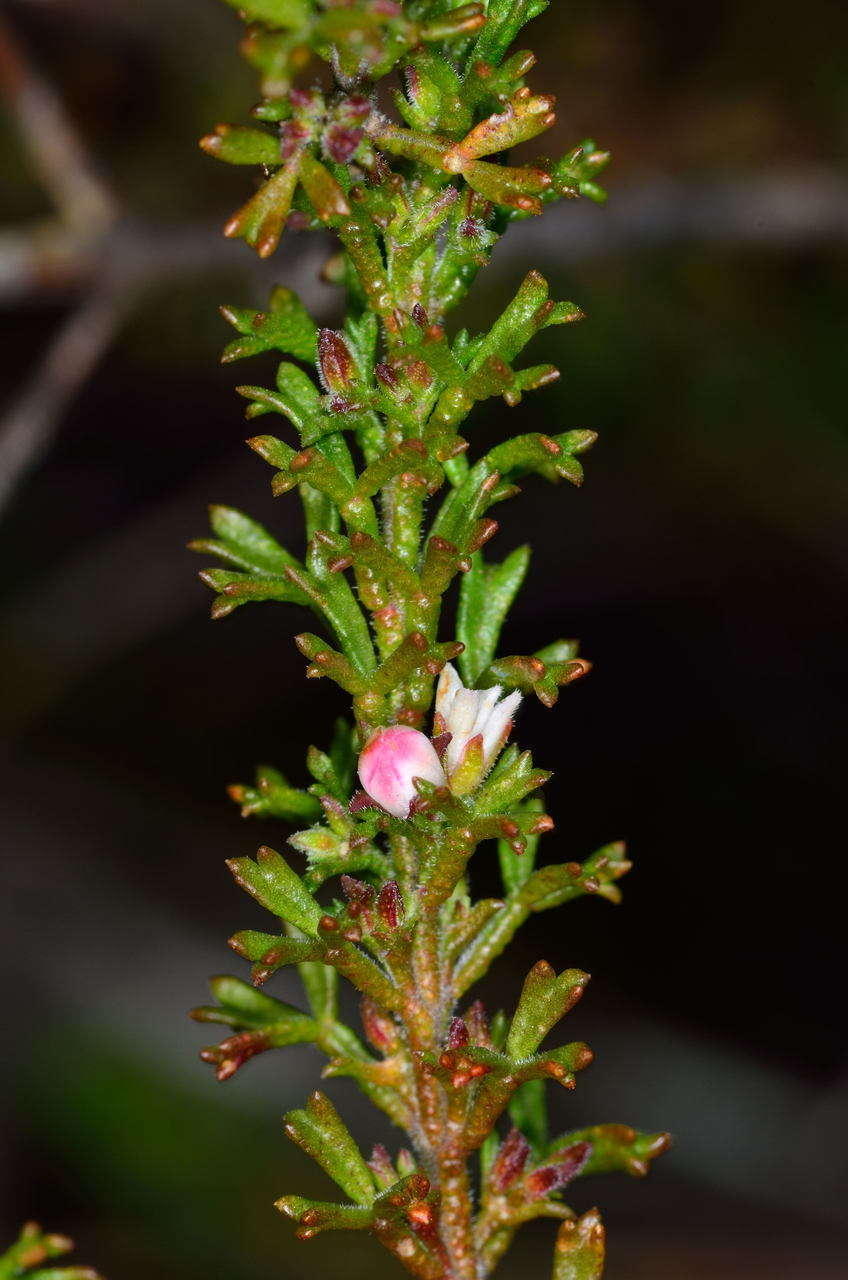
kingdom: Plantae
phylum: Tracheophyta
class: Magnoliopsida
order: Sapindales
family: Rutaceae
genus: Cyanothamnus
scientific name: Cyanothamnus anemonifolius
